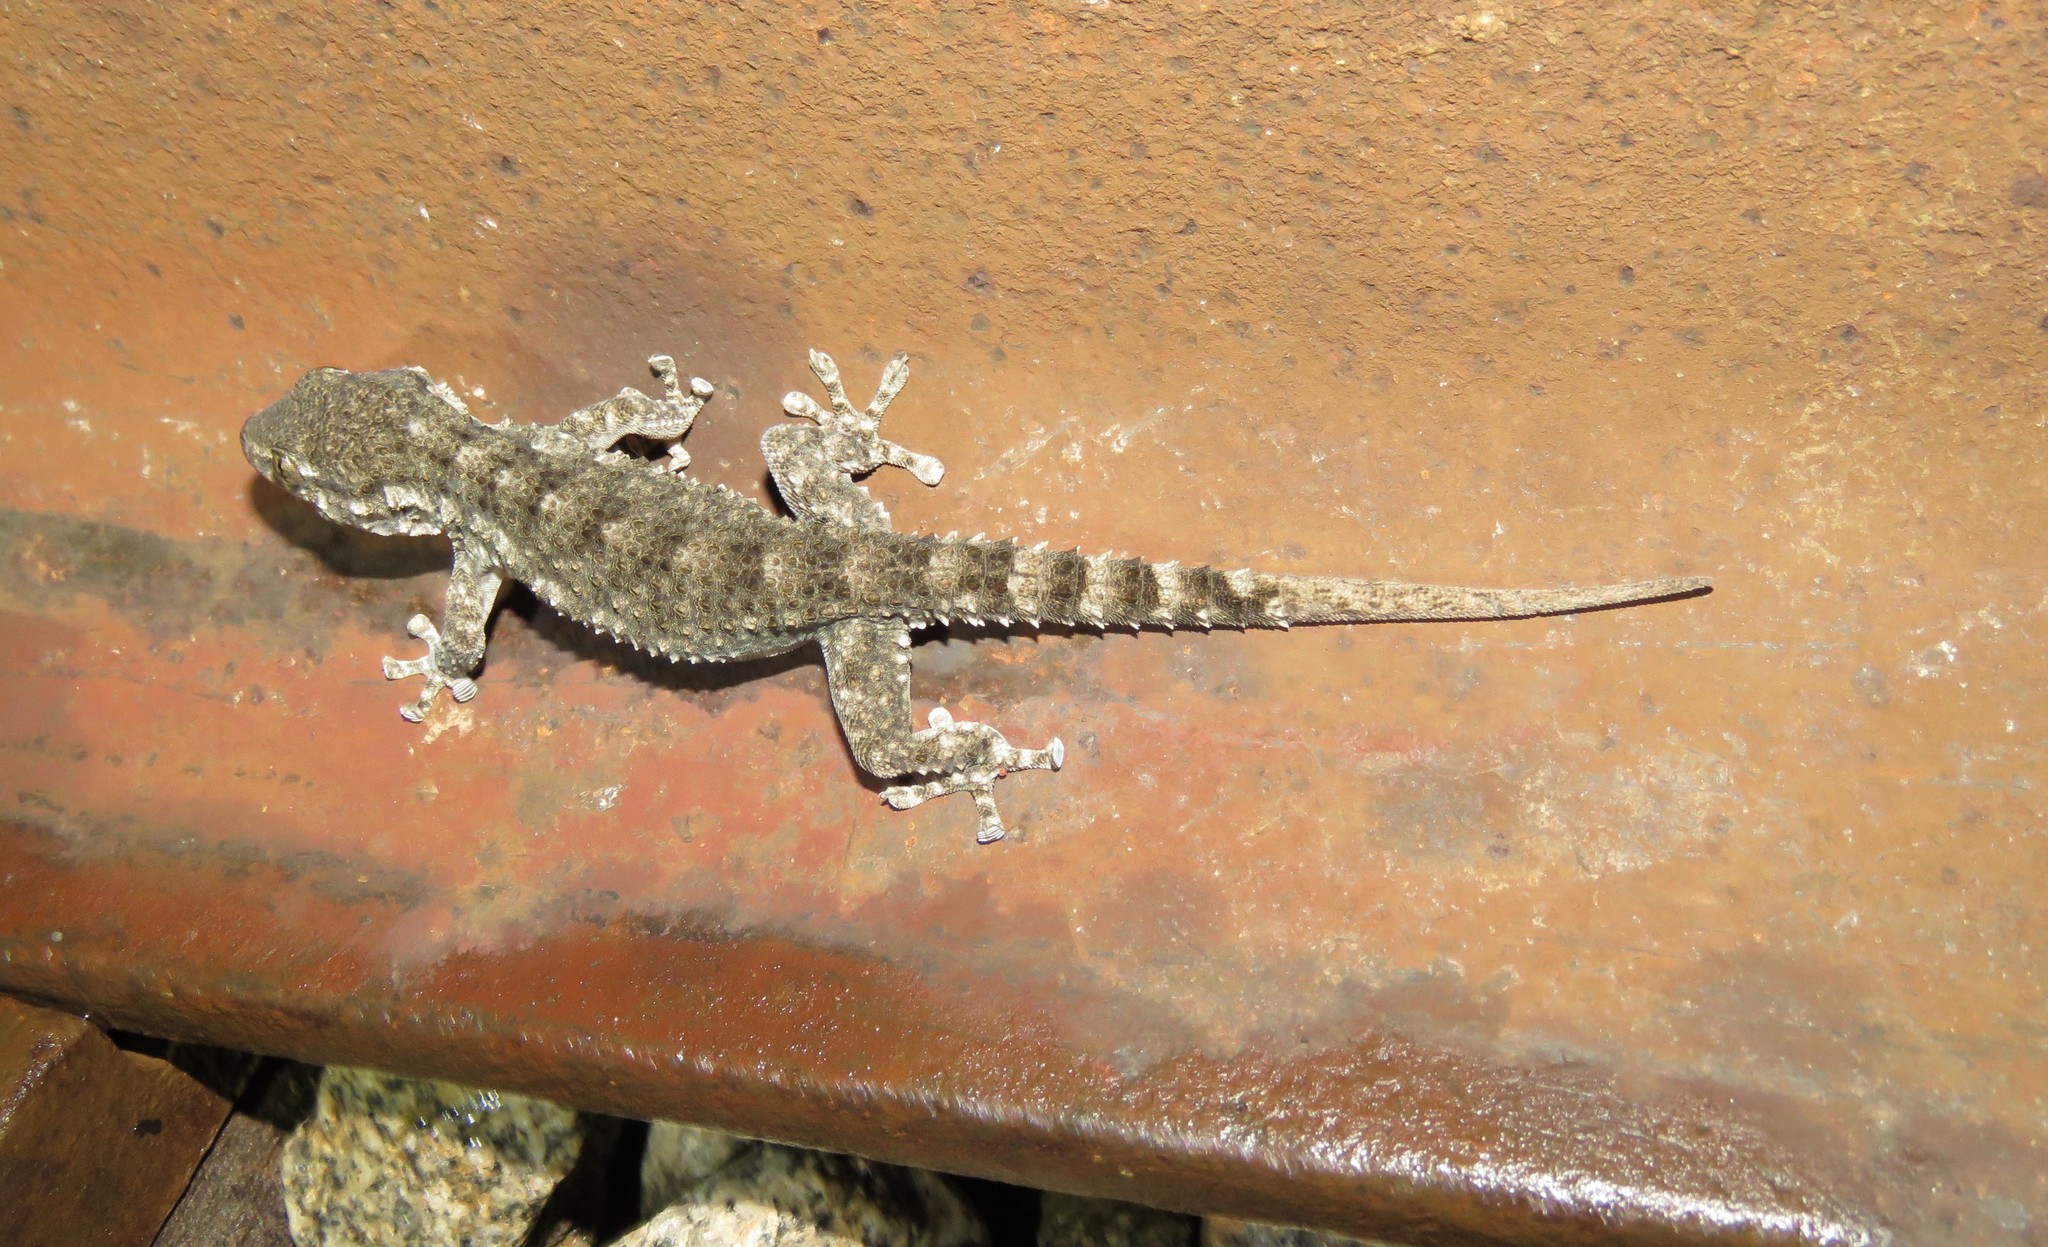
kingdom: Animalia
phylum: Chordata
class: Squamata
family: Phyllodactylidae
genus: Tarentola
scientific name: Tarentola mauritanica
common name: Moorish gecko
